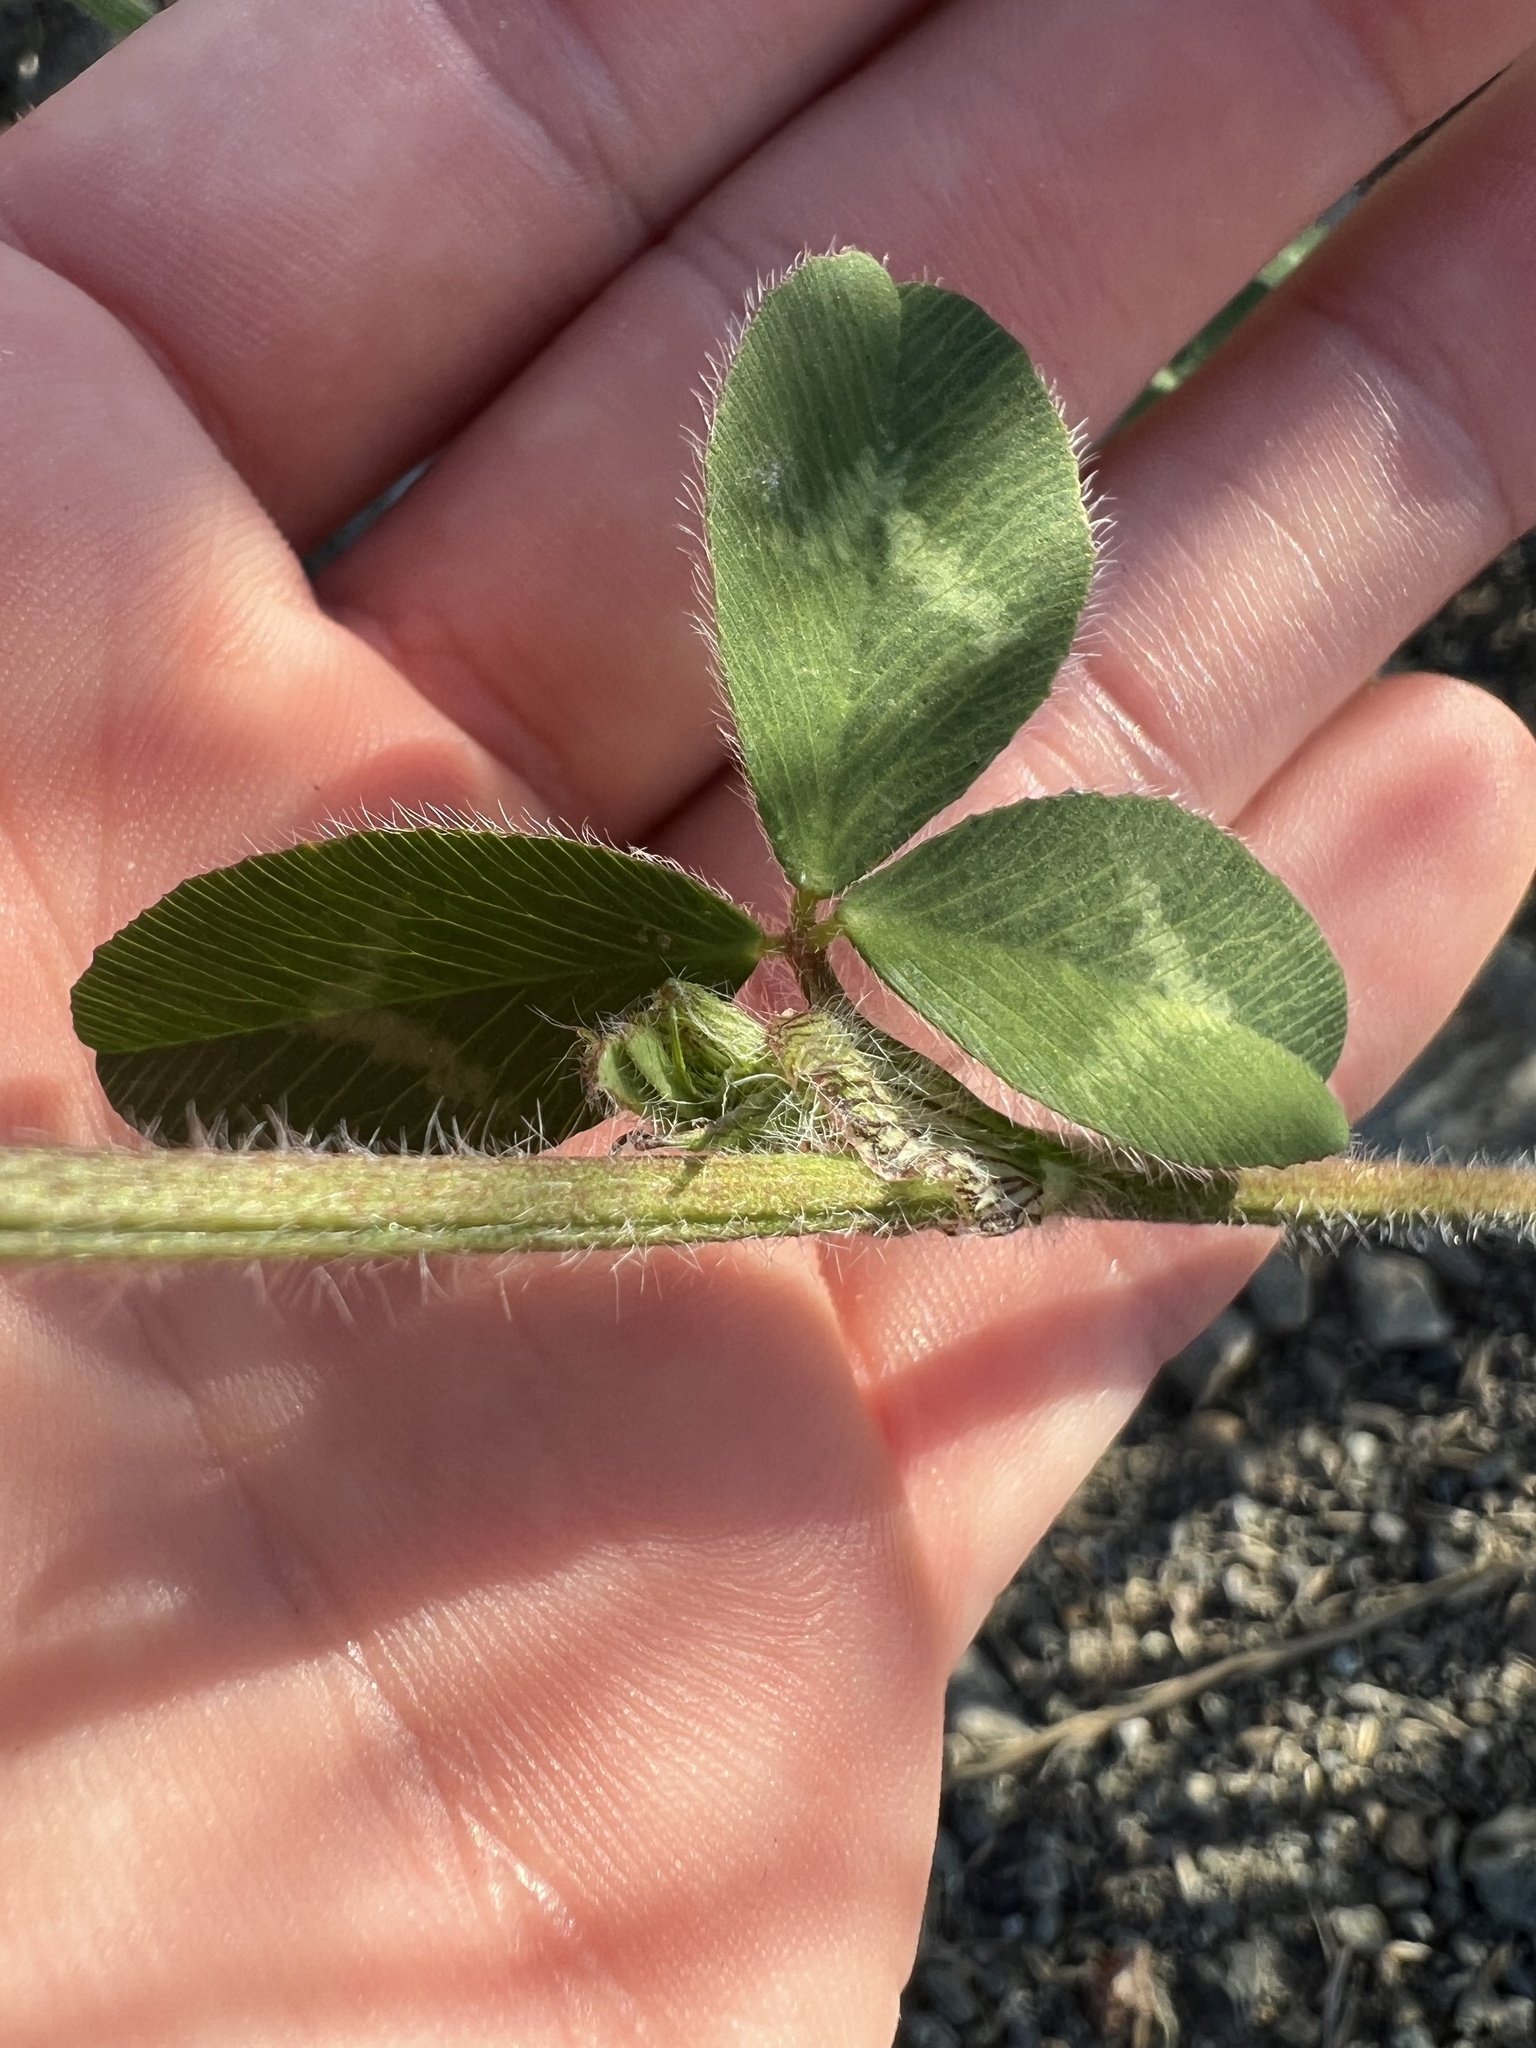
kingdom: Plantae
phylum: Tracheophyta
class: Magnoliopsida
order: Fabales
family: Fabaceae
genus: Trifolium
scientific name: Trifolium pratense
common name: Red clover
